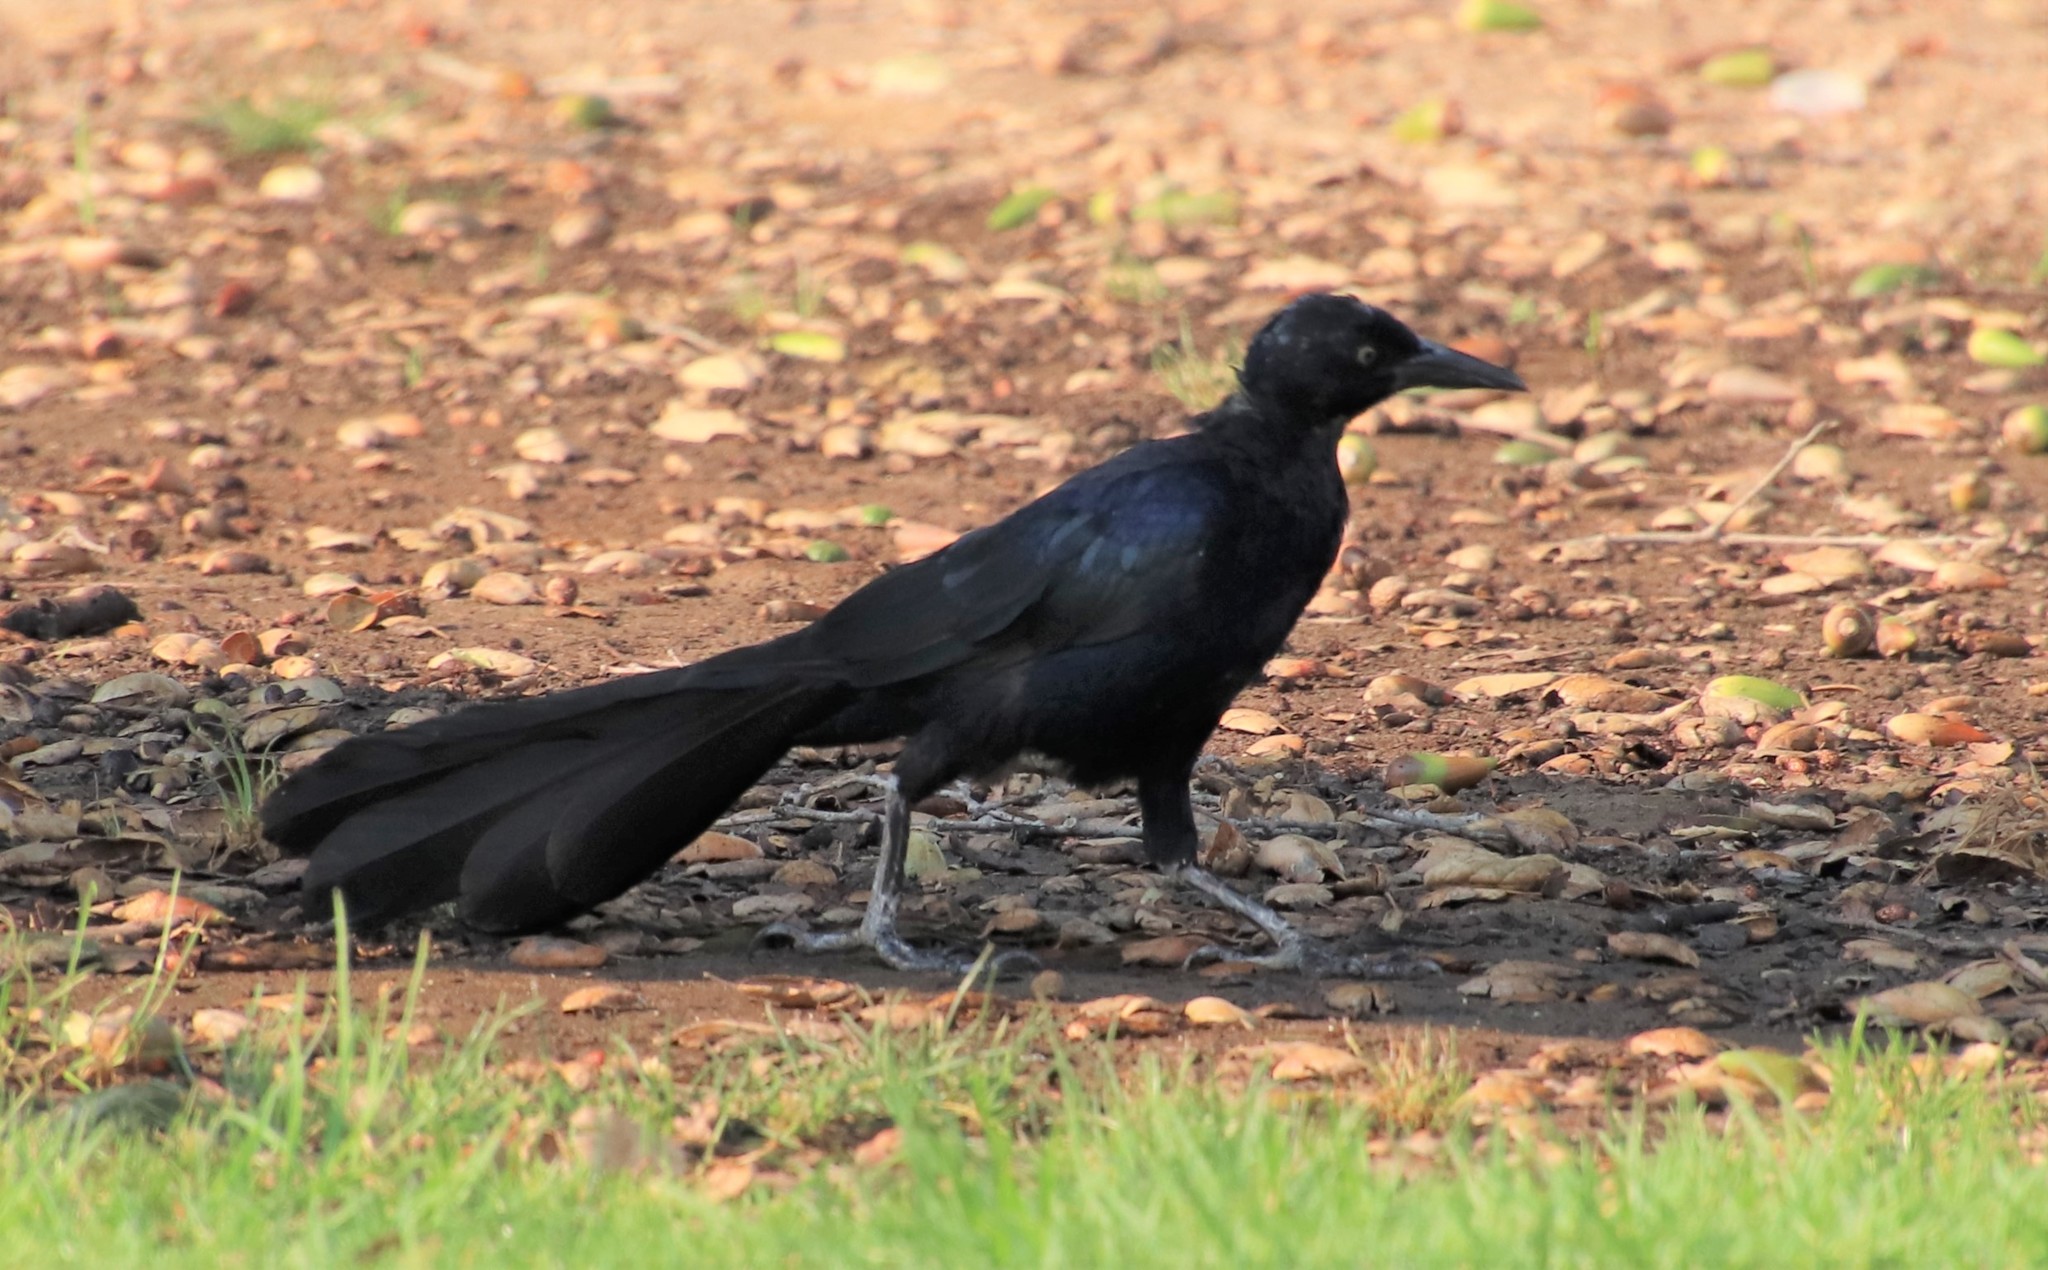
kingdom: Animalia
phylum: Chordata
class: Aves
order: Passeriformes
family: Icteridae
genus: Quiscalus
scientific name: Quiscalus mexicanus
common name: Great-tailed grackle
